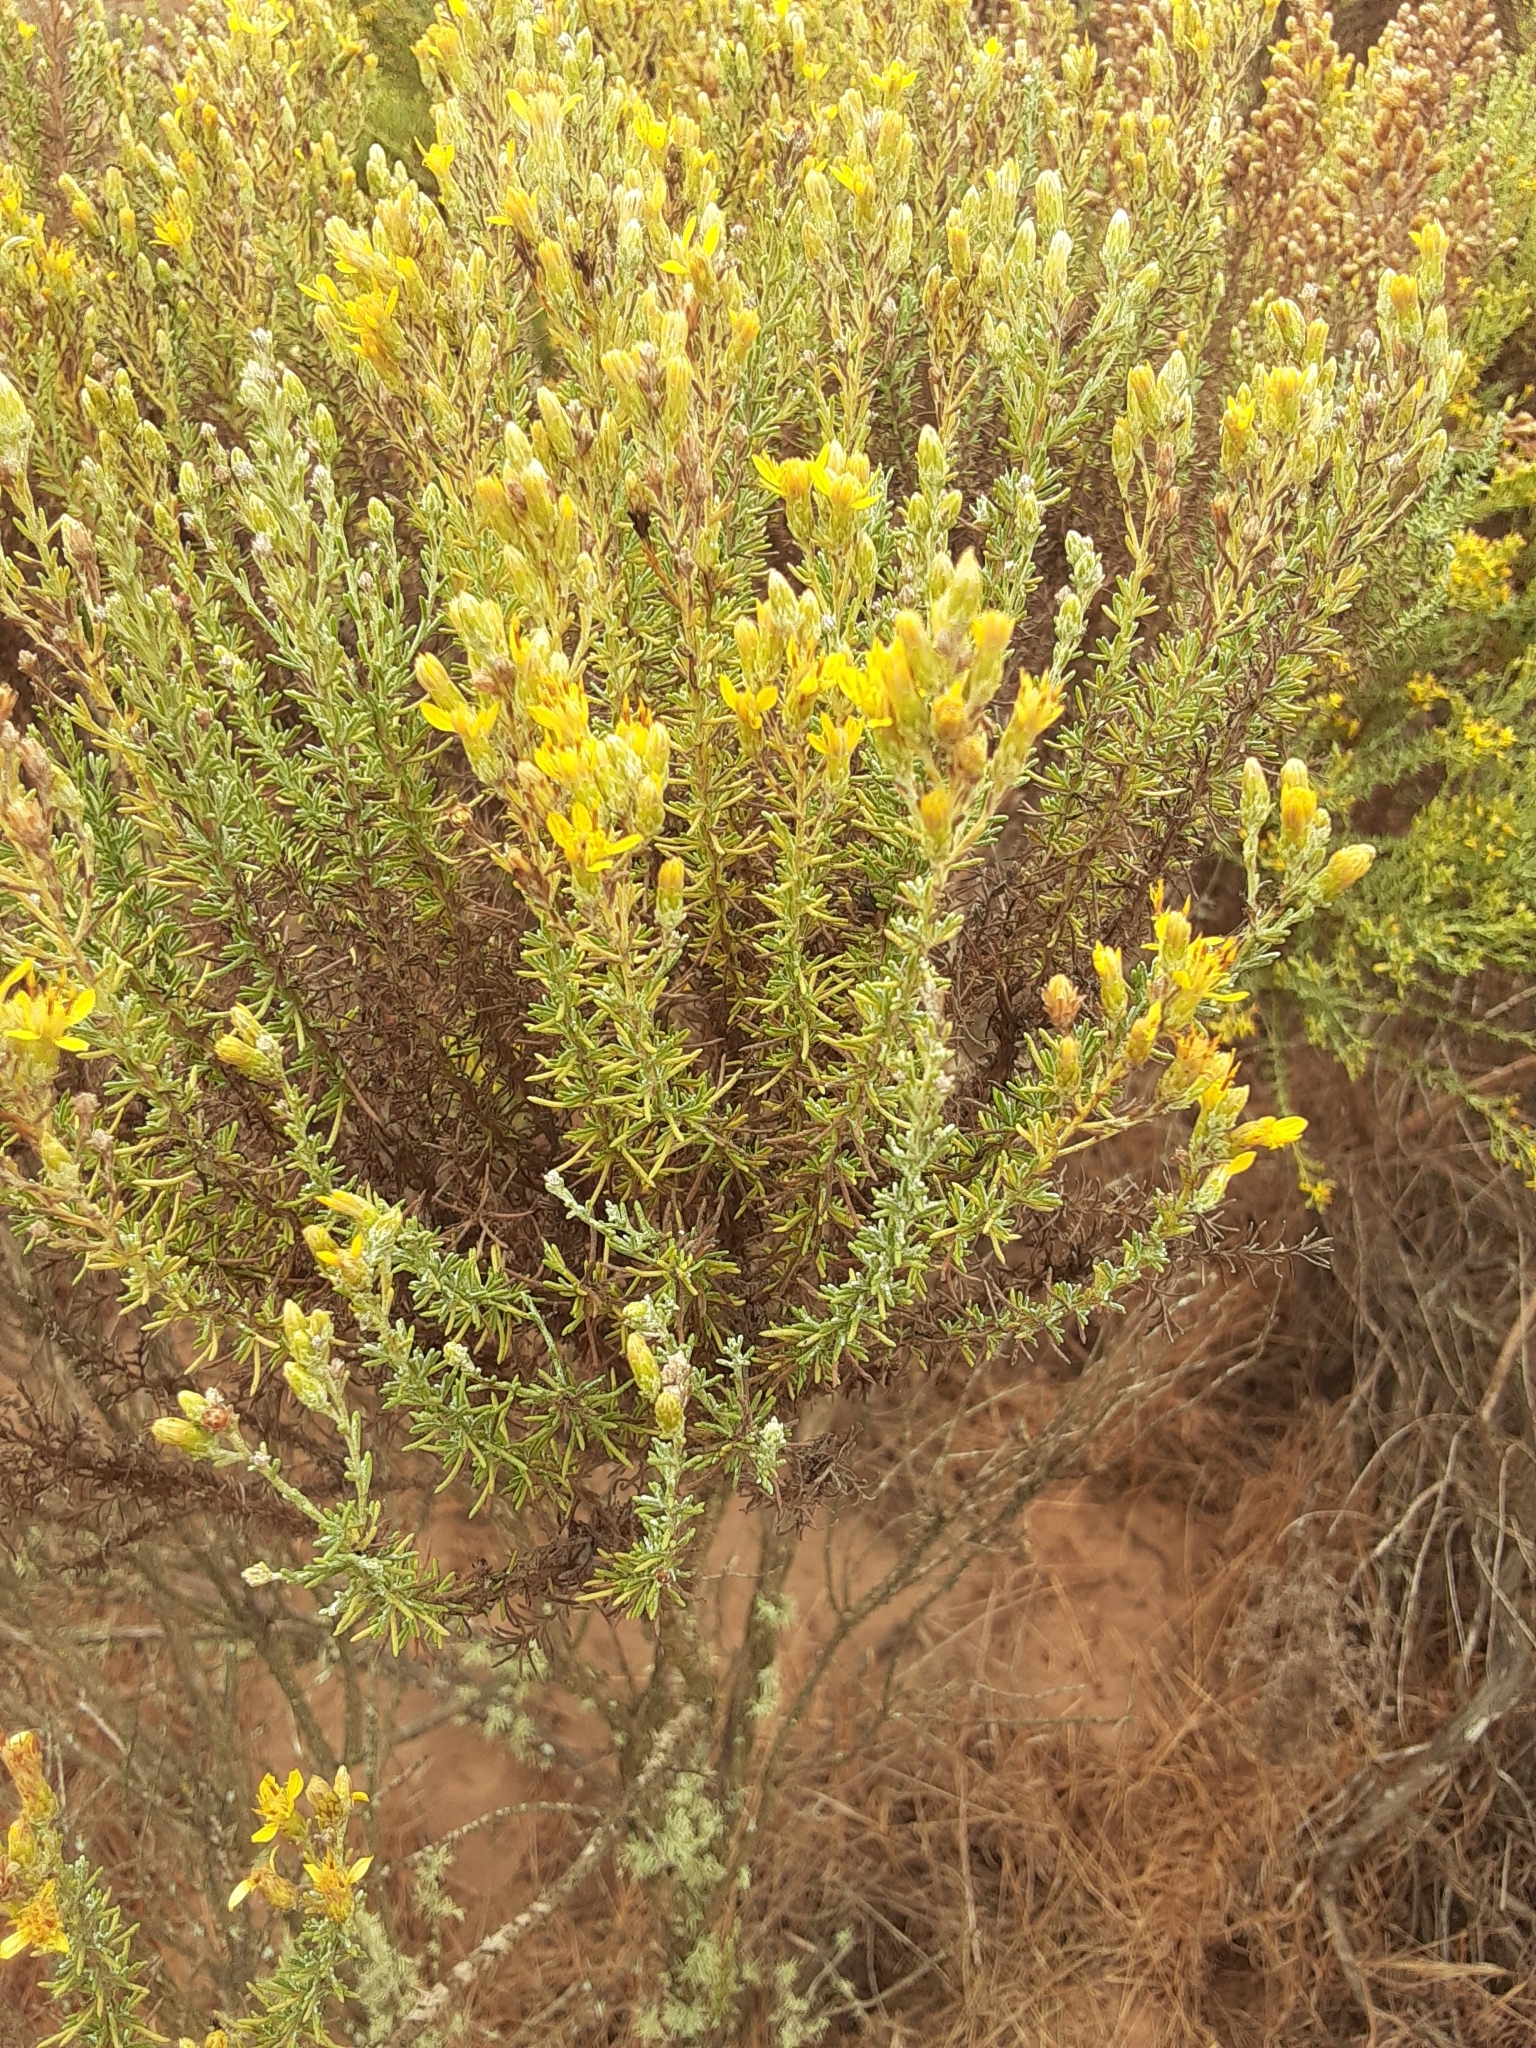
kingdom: Plantae
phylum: Tracheophyta
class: Magnoliopsida
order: Asterales
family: Asteraceae
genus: Ericameria
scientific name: Ericameria ericoides
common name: California goldenbush
